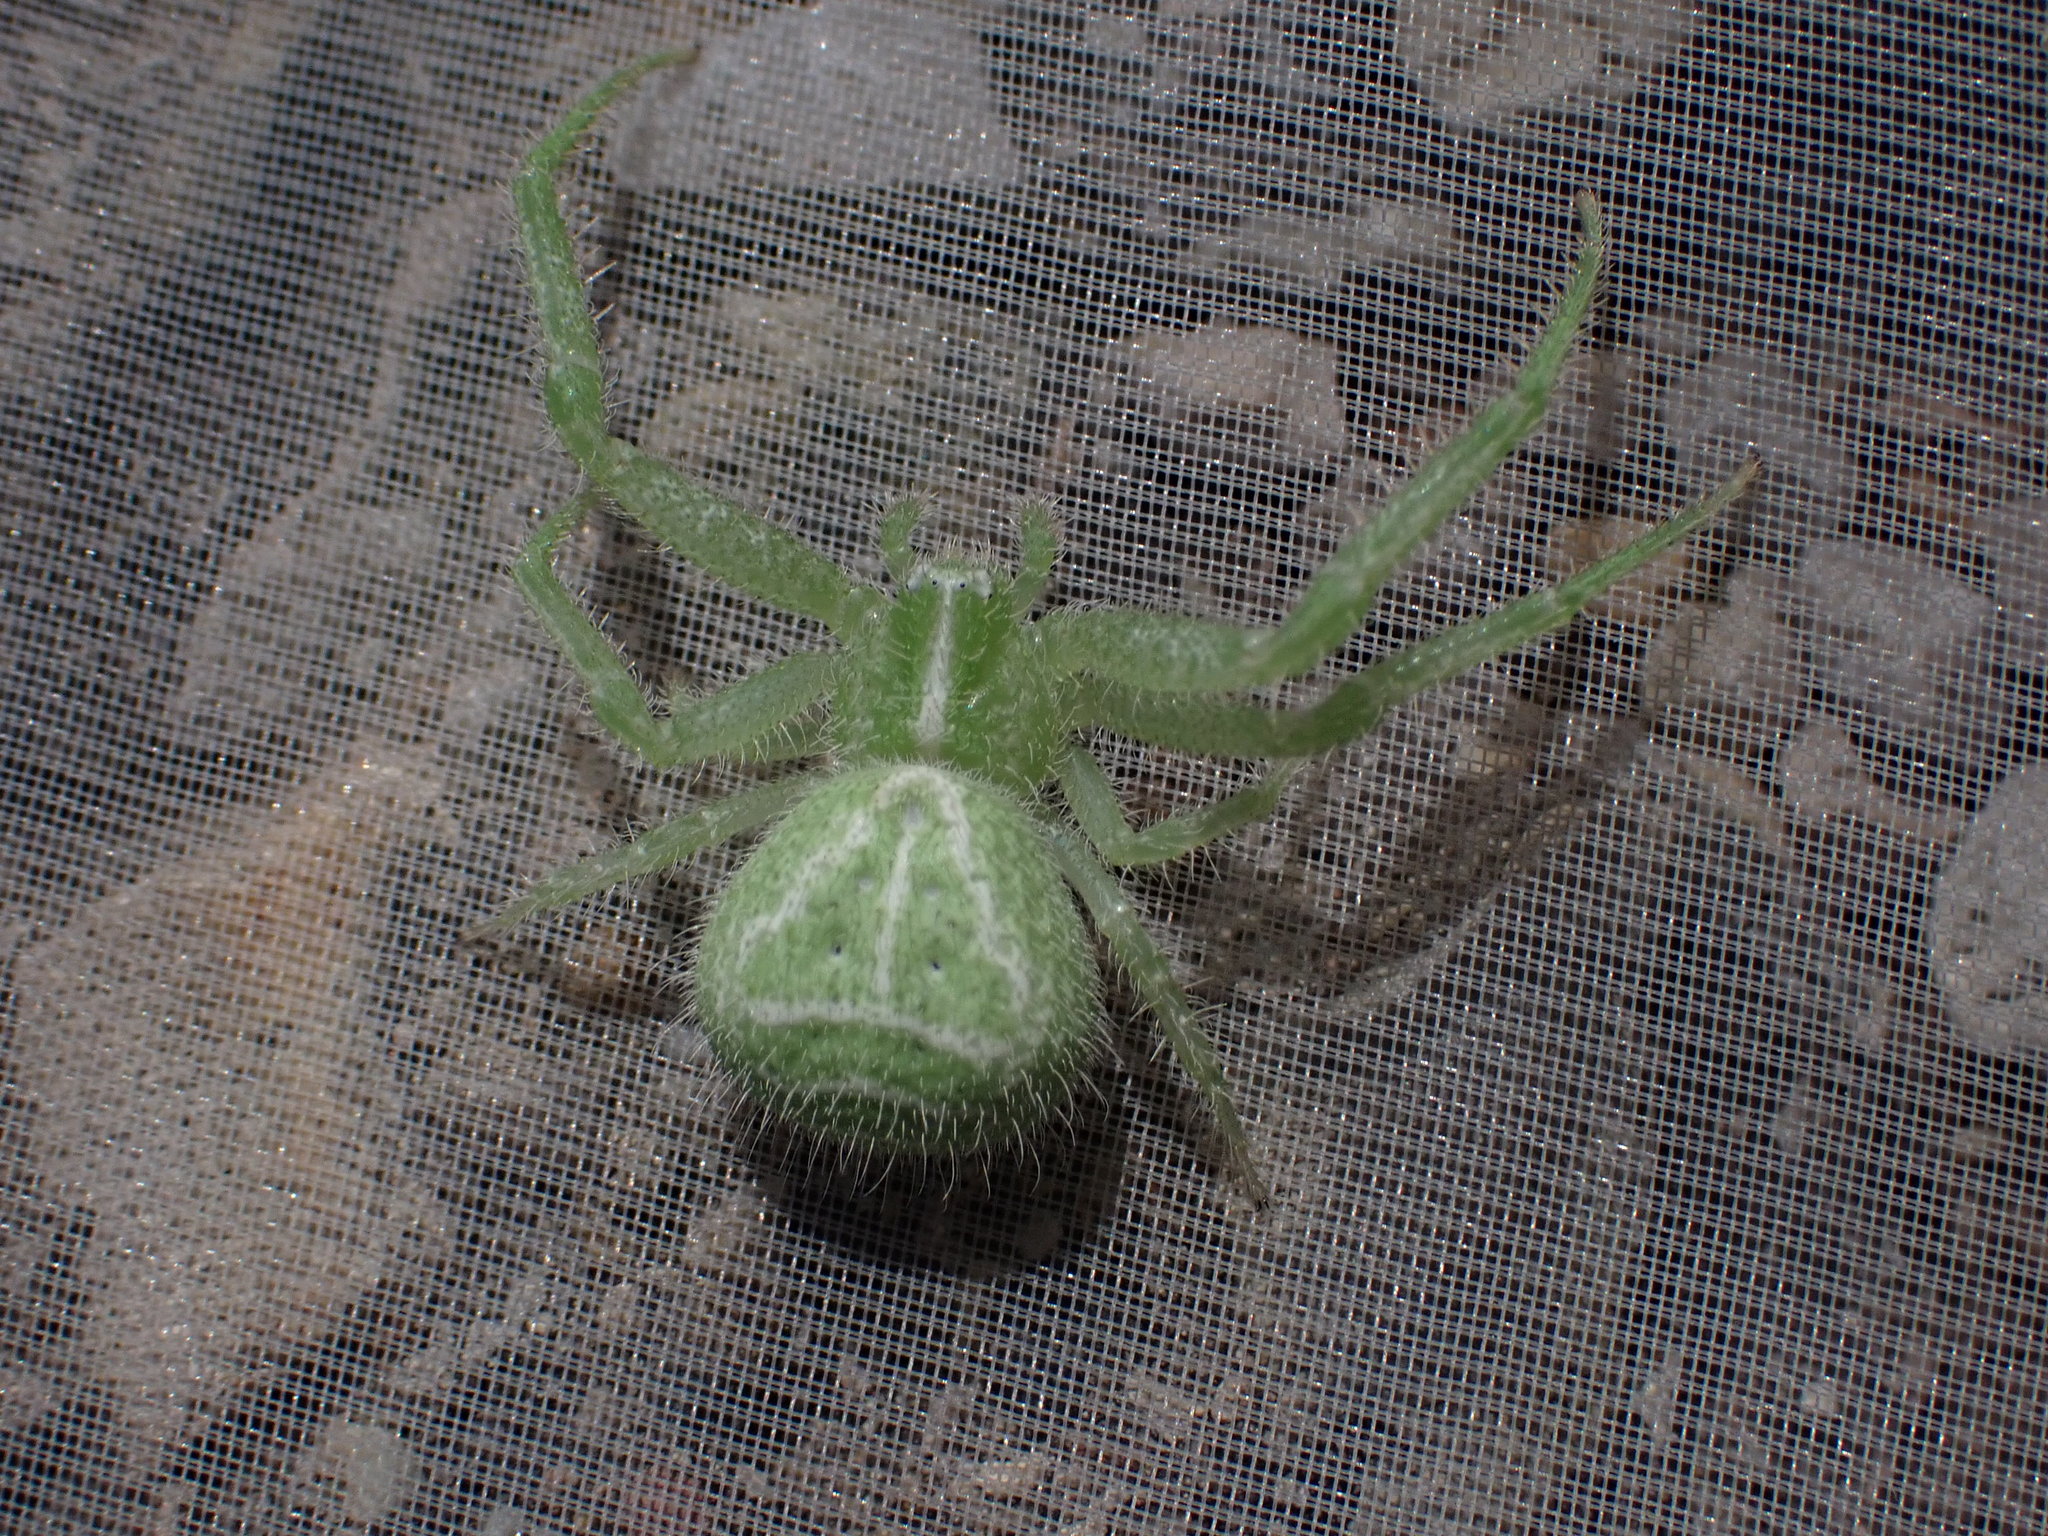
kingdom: Animalia
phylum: Arthropoda
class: Arachnida
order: Araneae
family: Thomisidae
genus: Heriaeus
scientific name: Heriaeus hirtus
